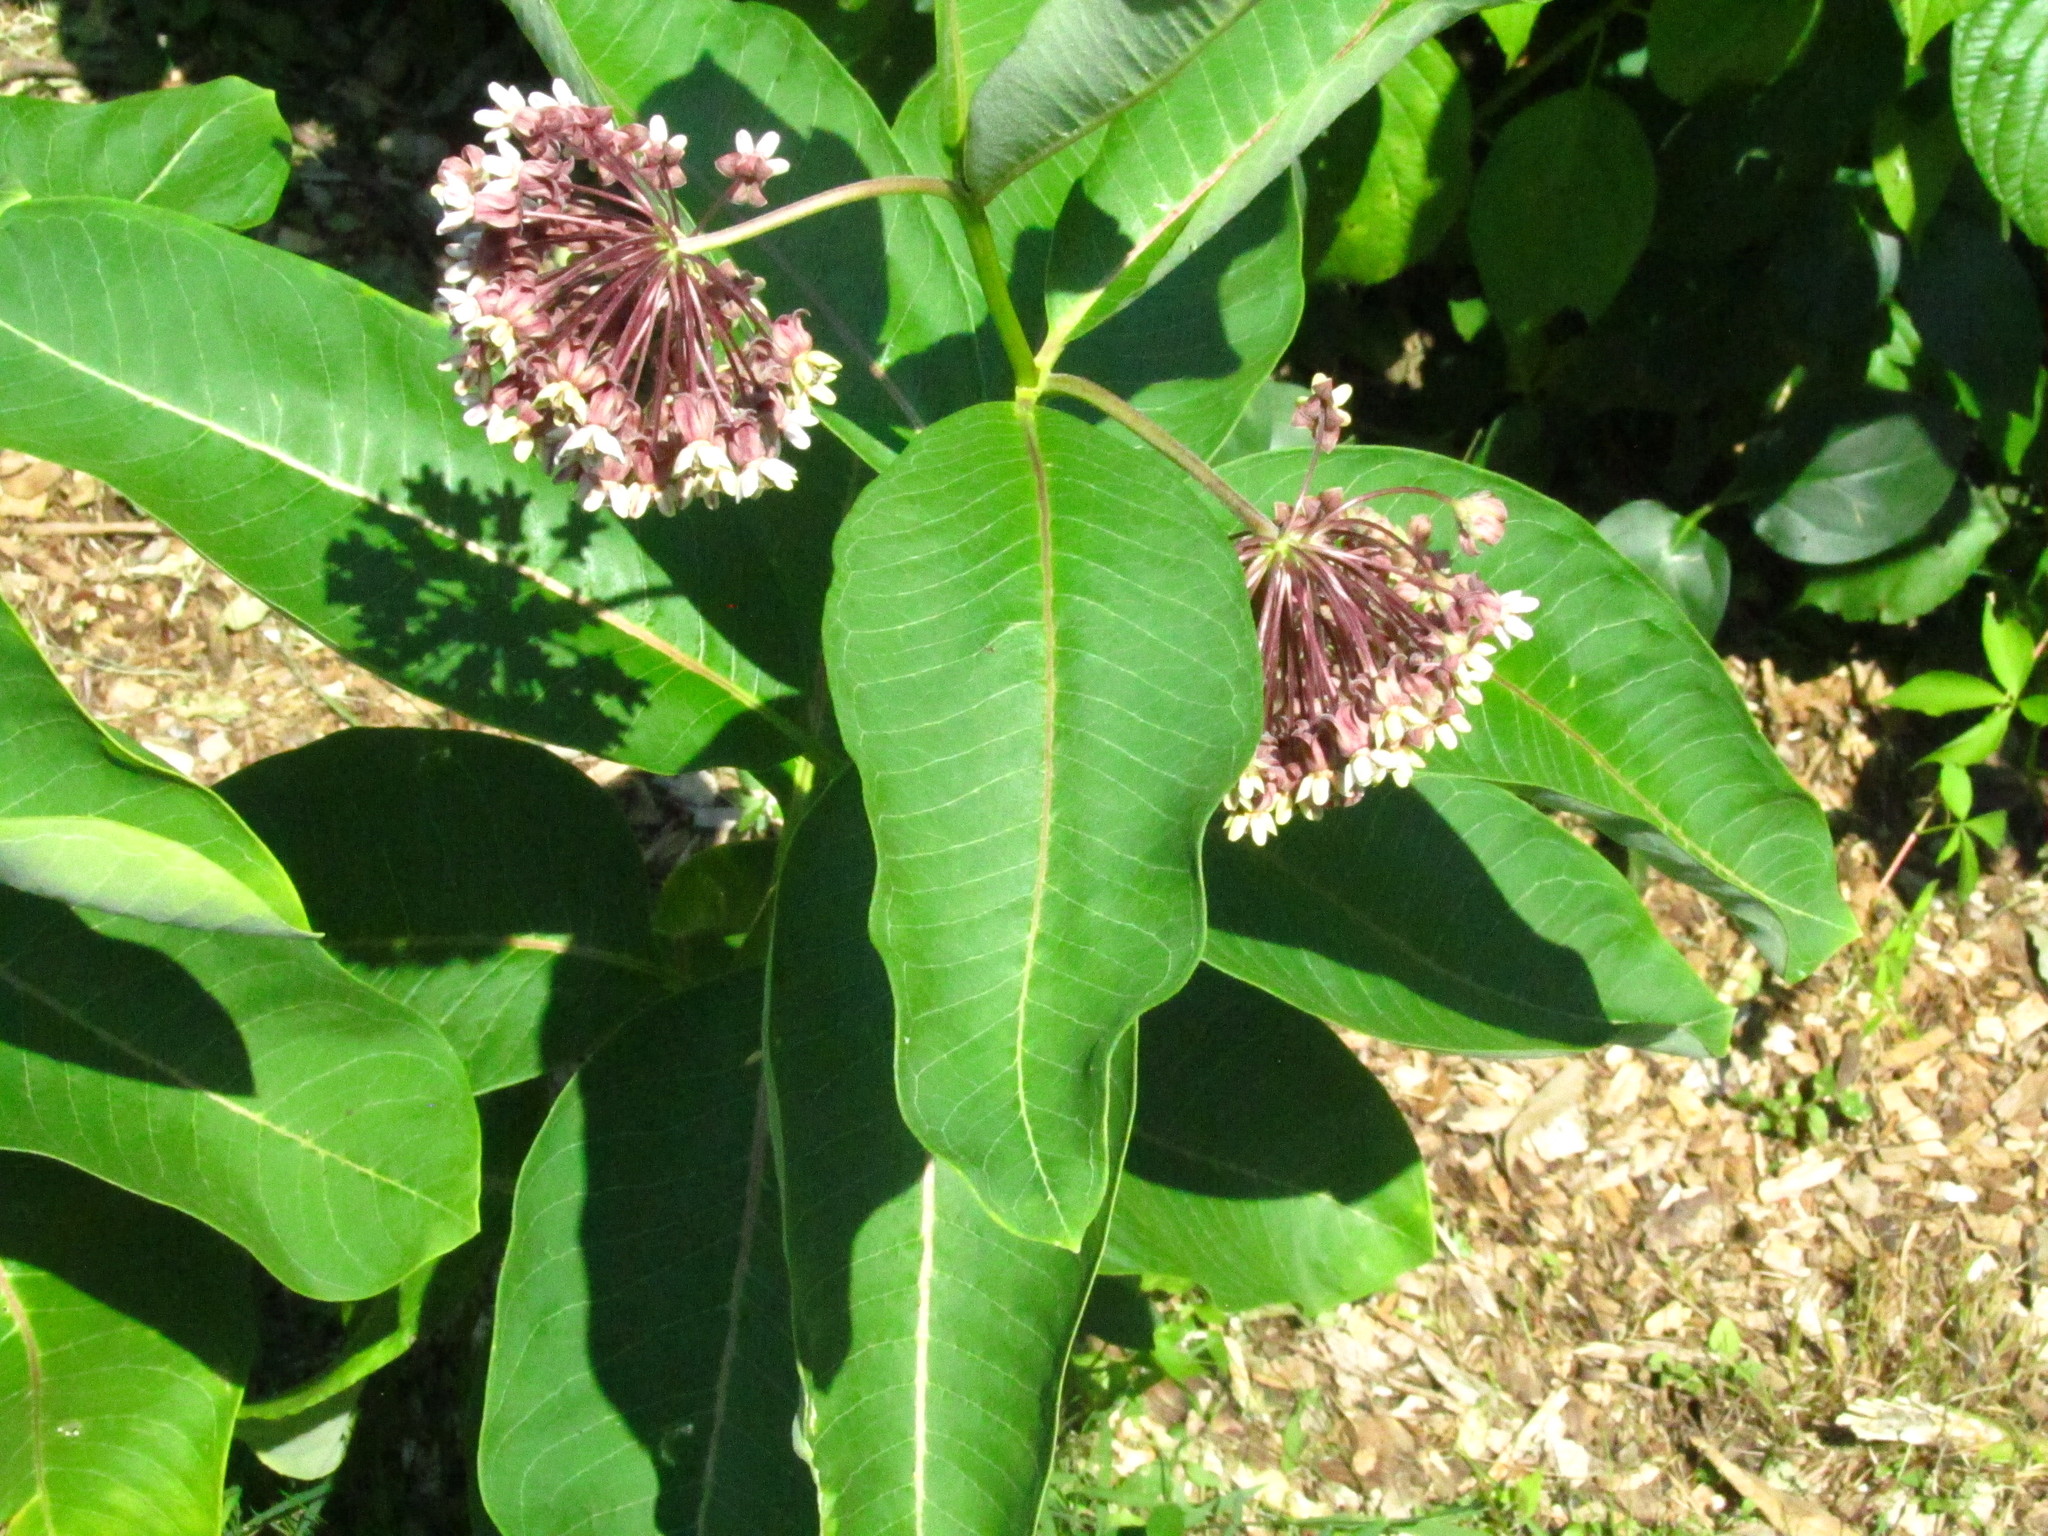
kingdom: Plantae
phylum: Tracheophyta
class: Magnoliopsida
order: Gentianales
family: Apocynaceae
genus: Asclepias
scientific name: Asclepias syriaca
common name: Common milkweed
